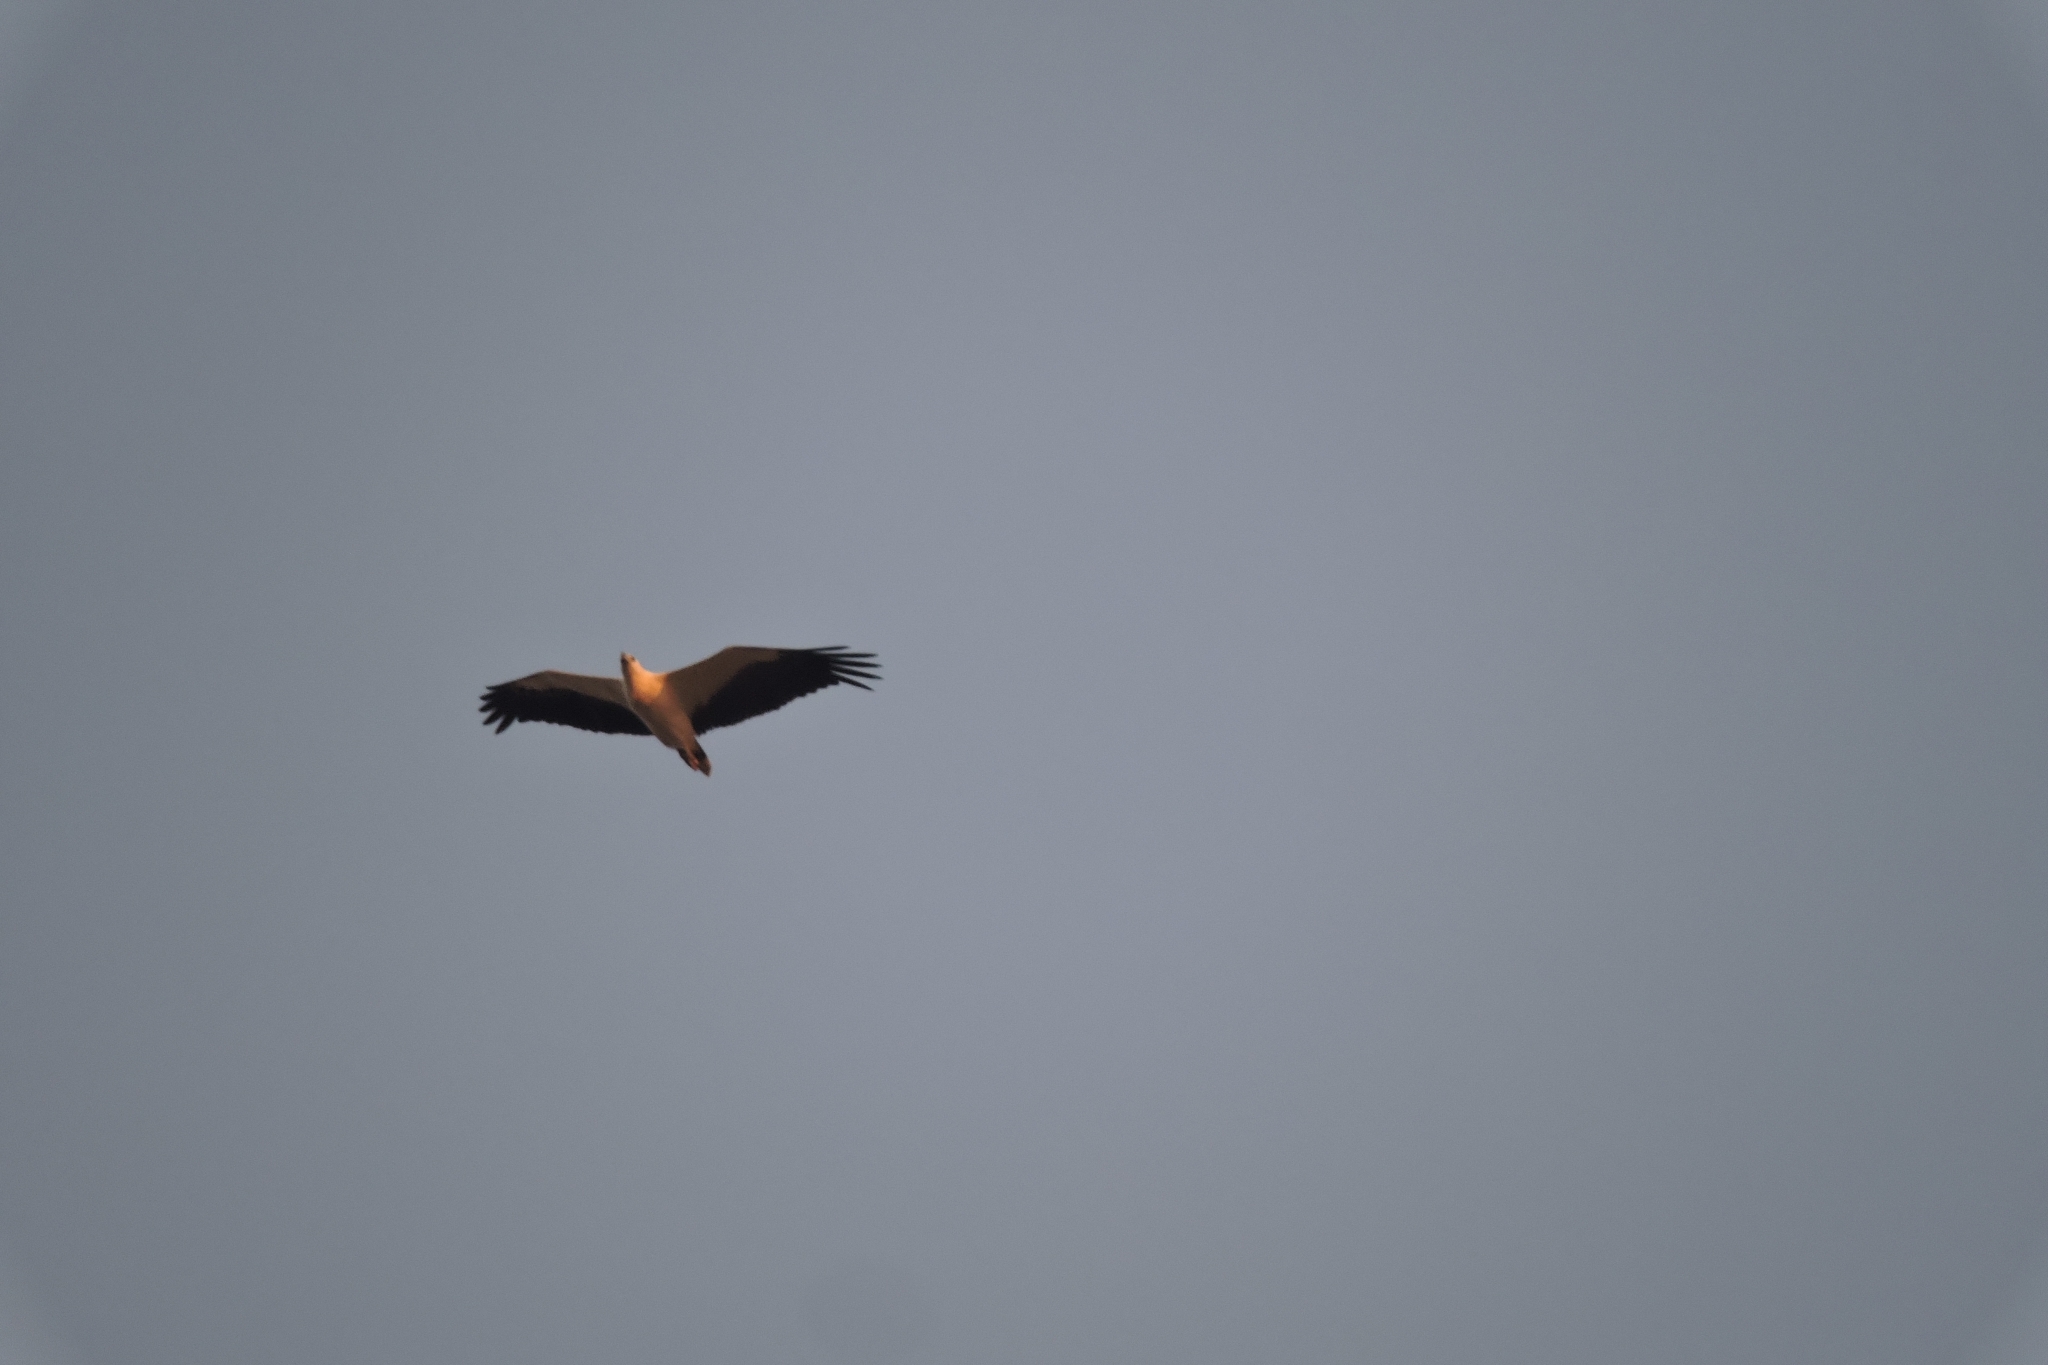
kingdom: Animalia
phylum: Chordata
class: Aves
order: Accipitriformes
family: Accipitridae
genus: Haliaeetus
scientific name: Haliaeetus leucogaster
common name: White-bellied sea eagle
